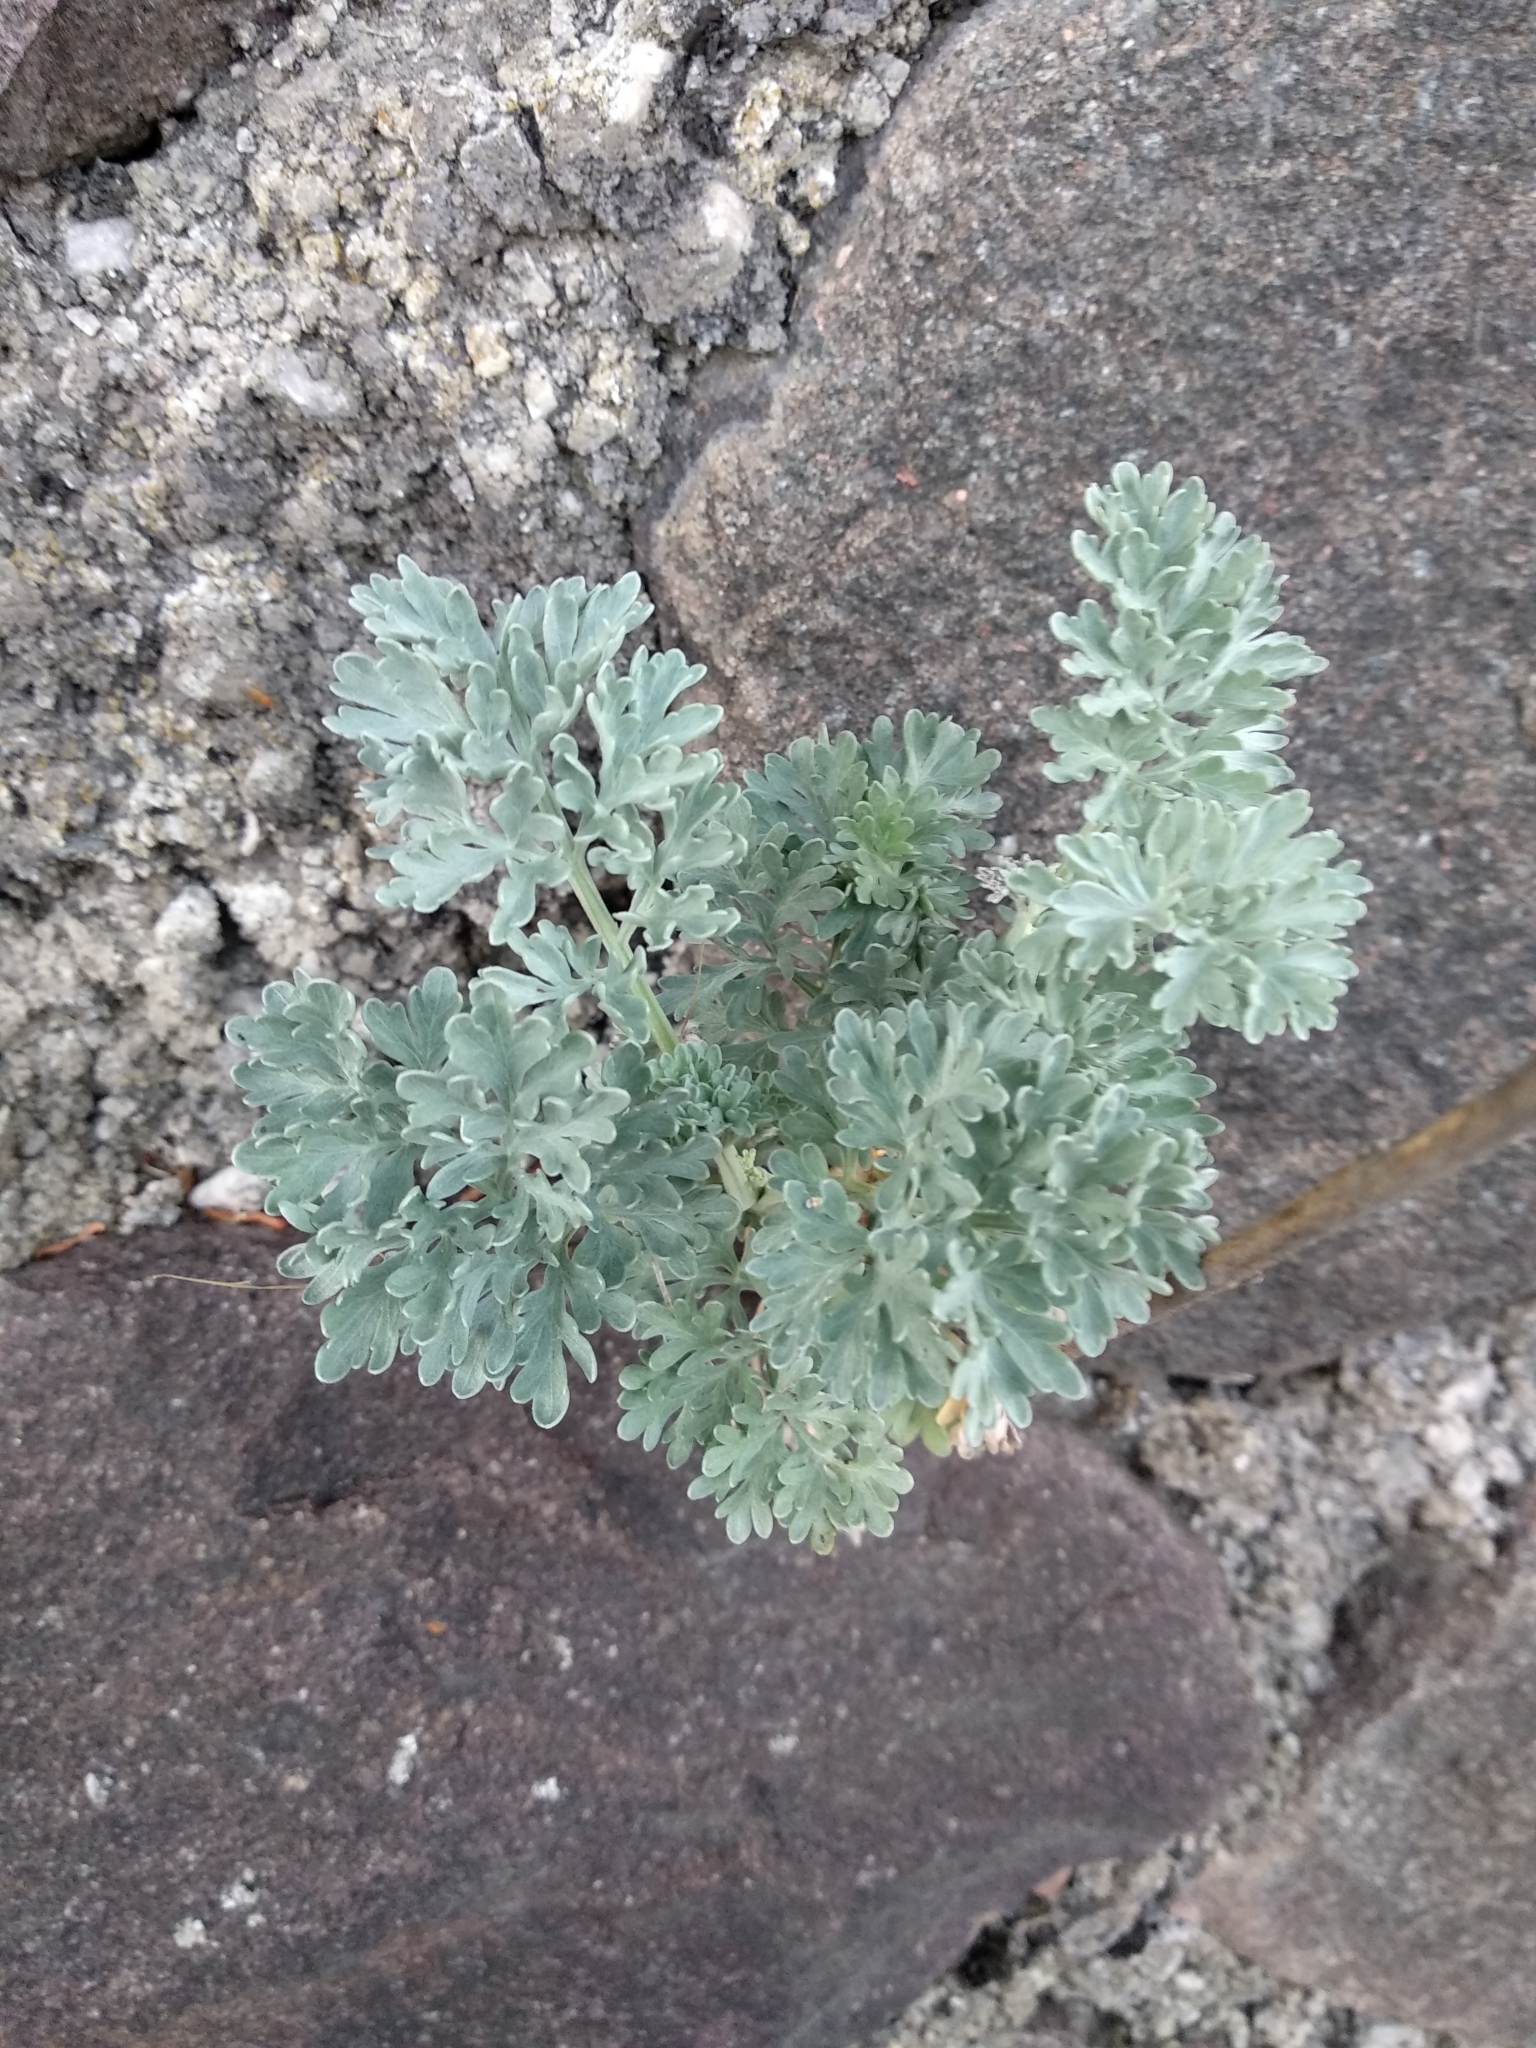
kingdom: Plantae
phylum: Tracheophyta
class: Magnoliopsida
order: Asterales
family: Asteraceae
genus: Artemisia
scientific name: Artemisia absinthium
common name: Wormwood
